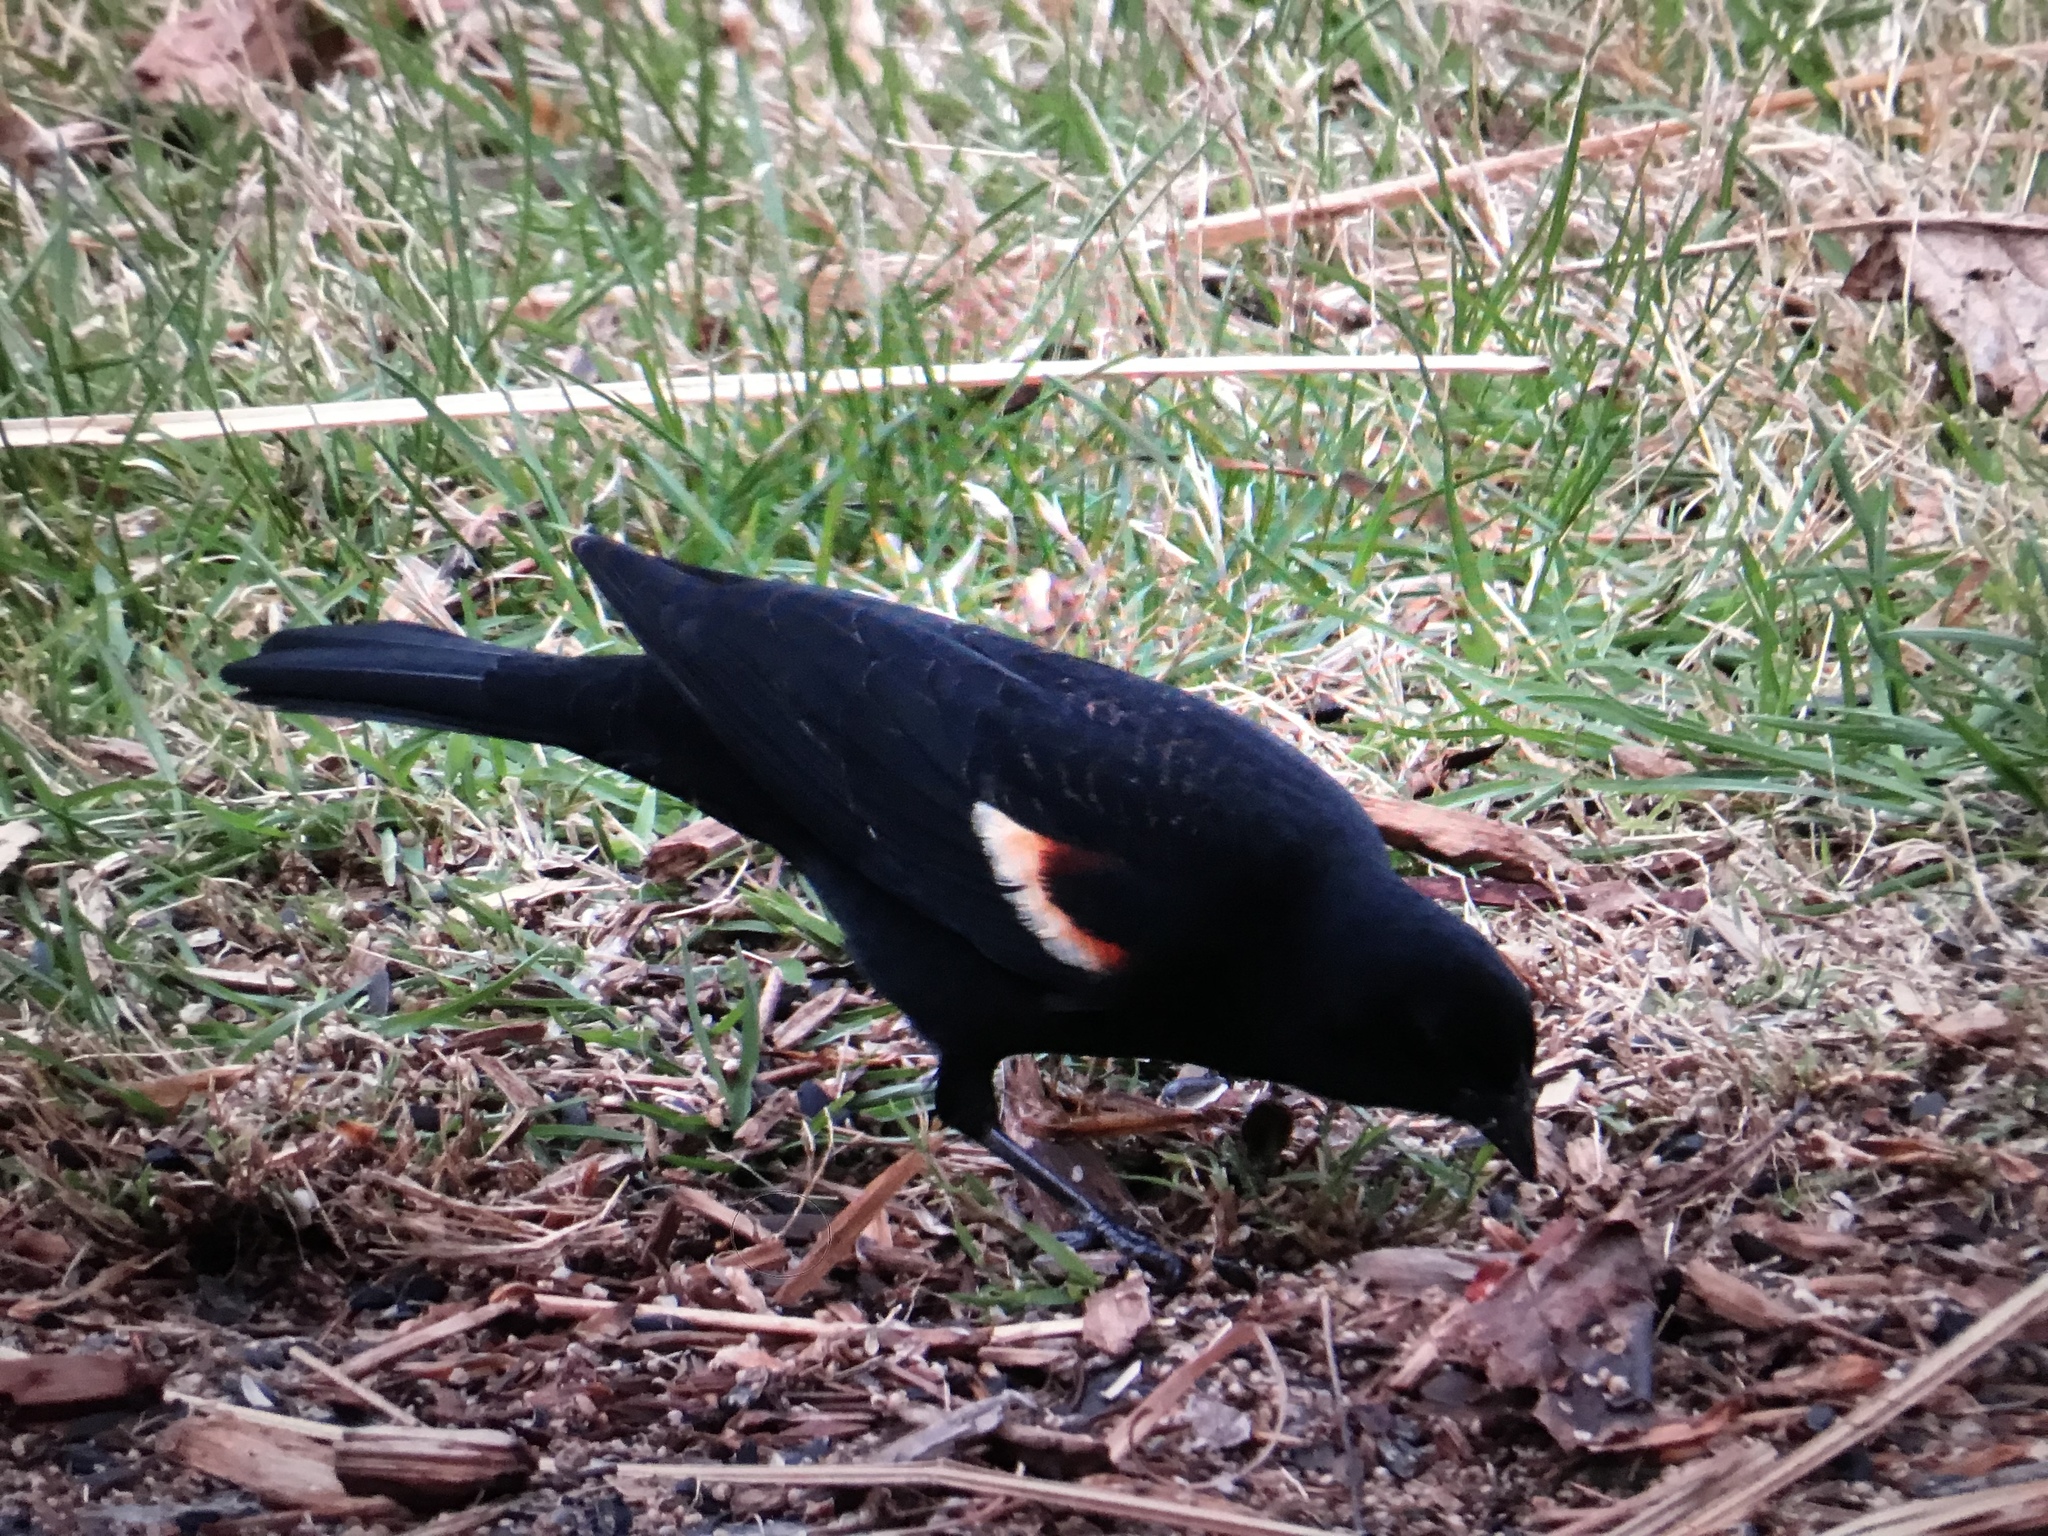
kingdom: Animalia
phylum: Chordata
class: Aves
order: Passeriformes
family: Icteridae
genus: Agelaius
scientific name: Agelaius phoeniceus
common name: Red-winged blackbird
